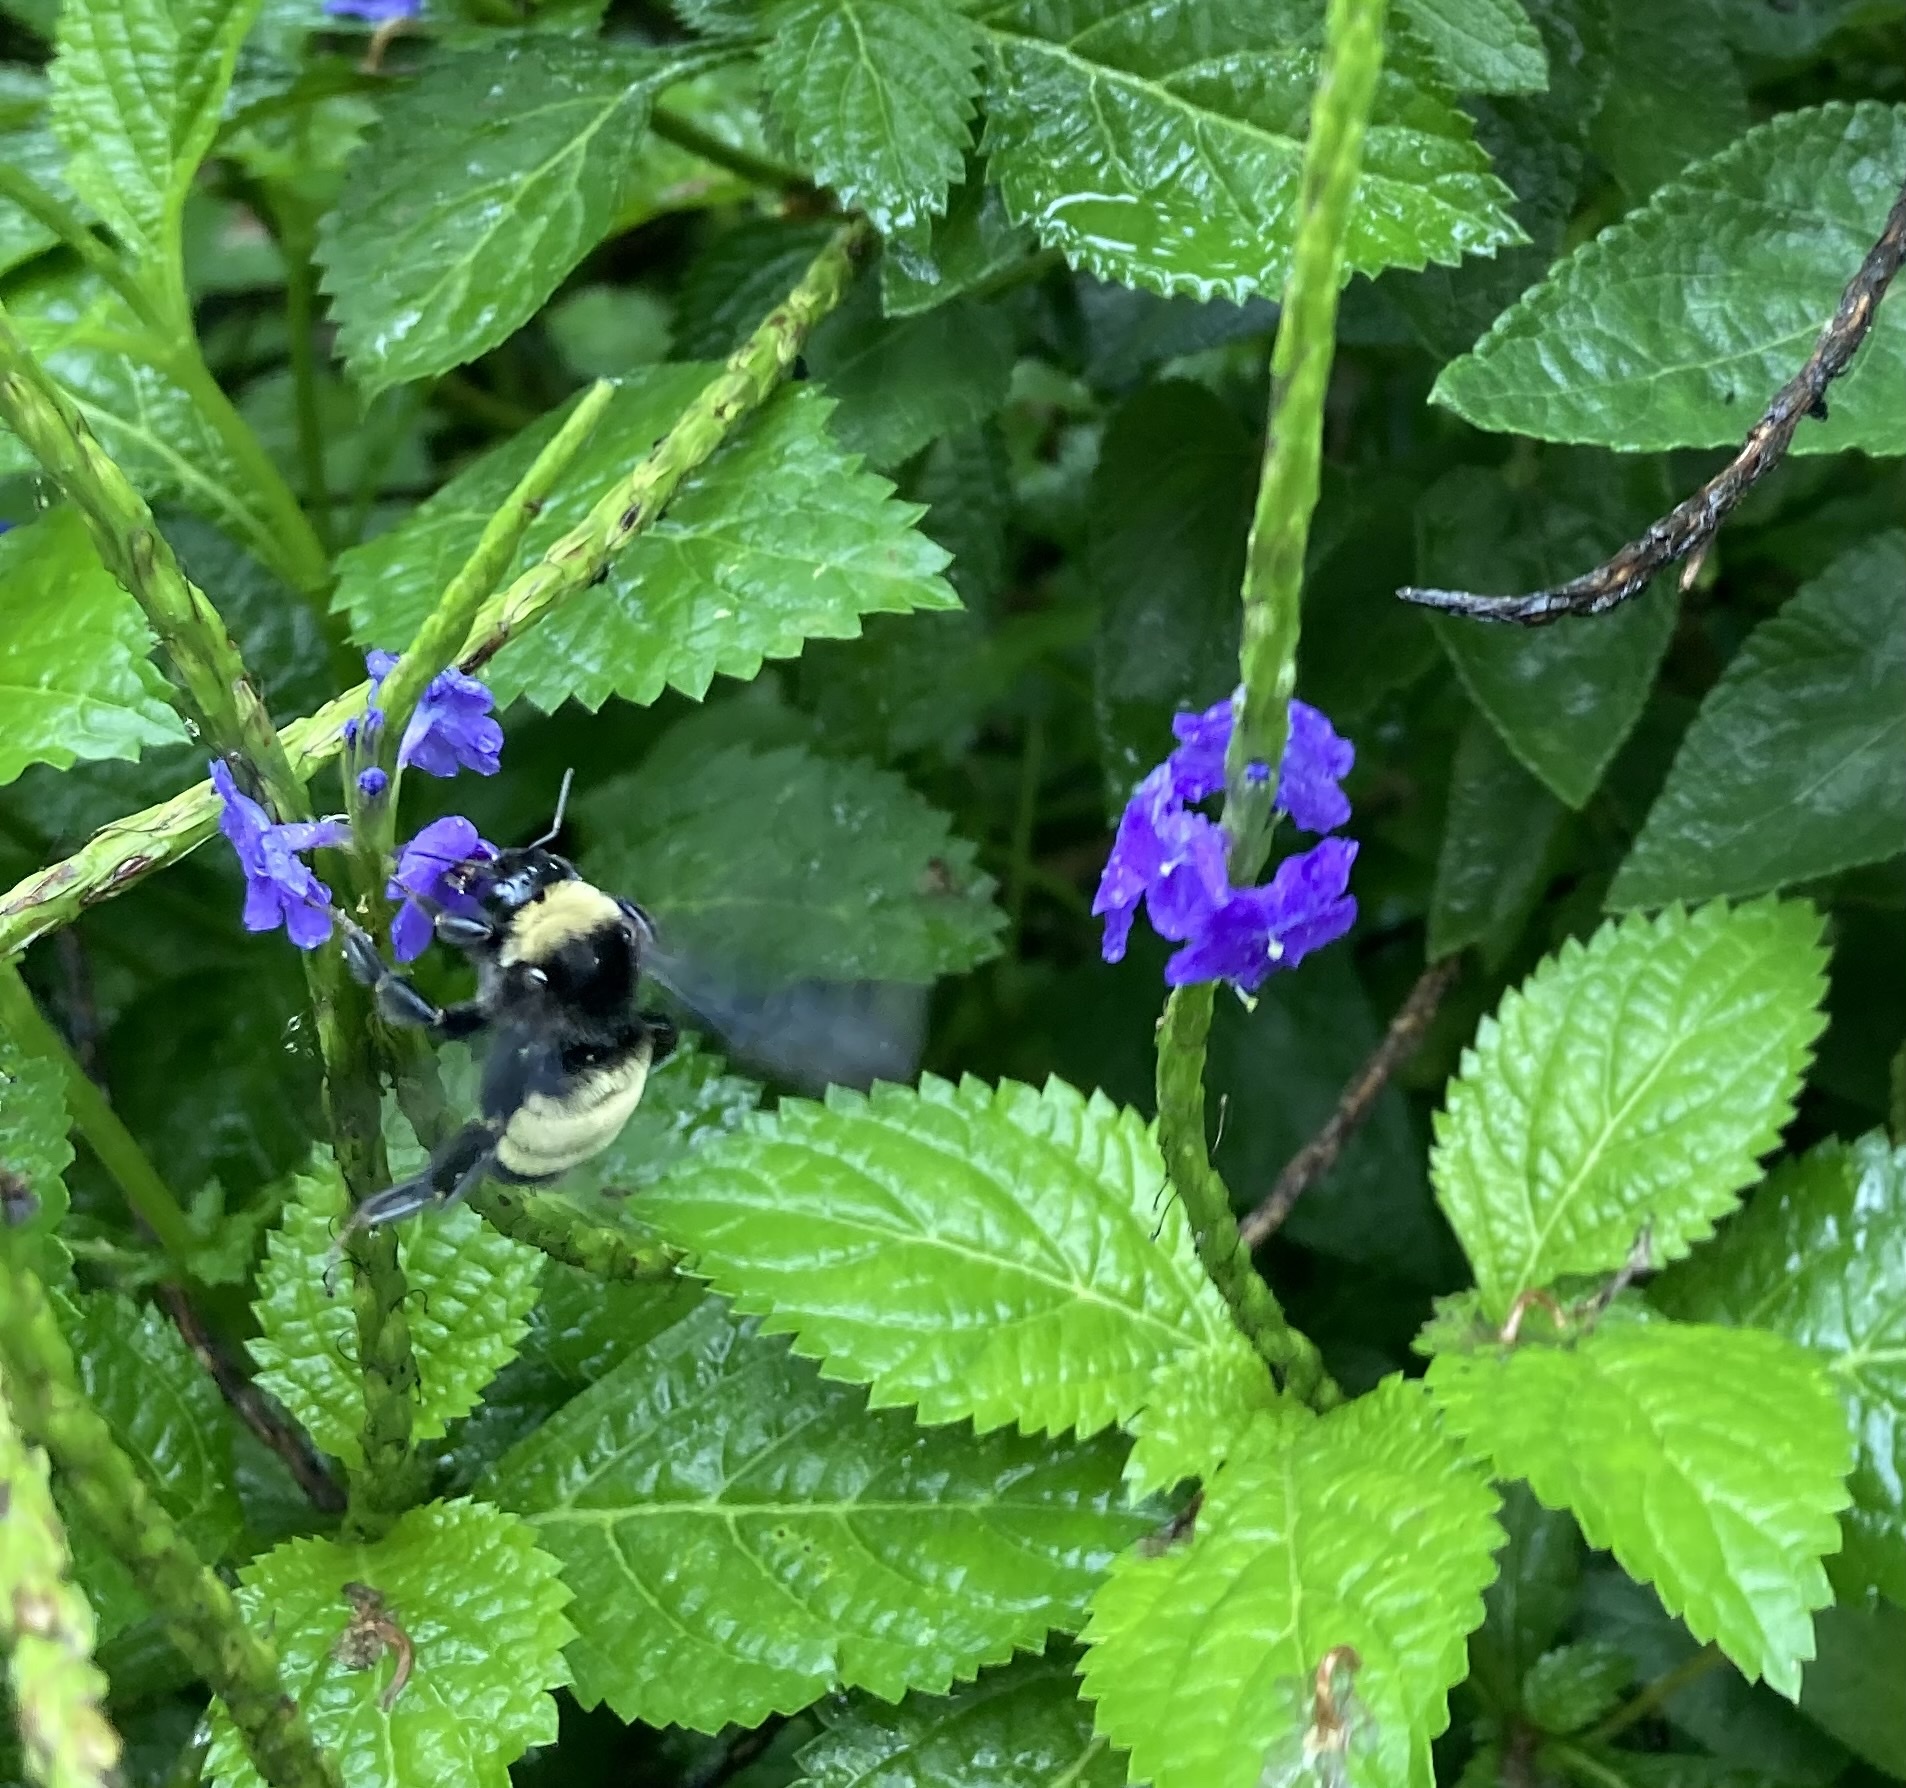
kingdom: Animalia
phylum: Arthropoda
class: Insecta
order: Hymenoptera
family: Apidae
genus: Bombus
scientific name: Bombus pensylvanicus
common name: Bumble bee
